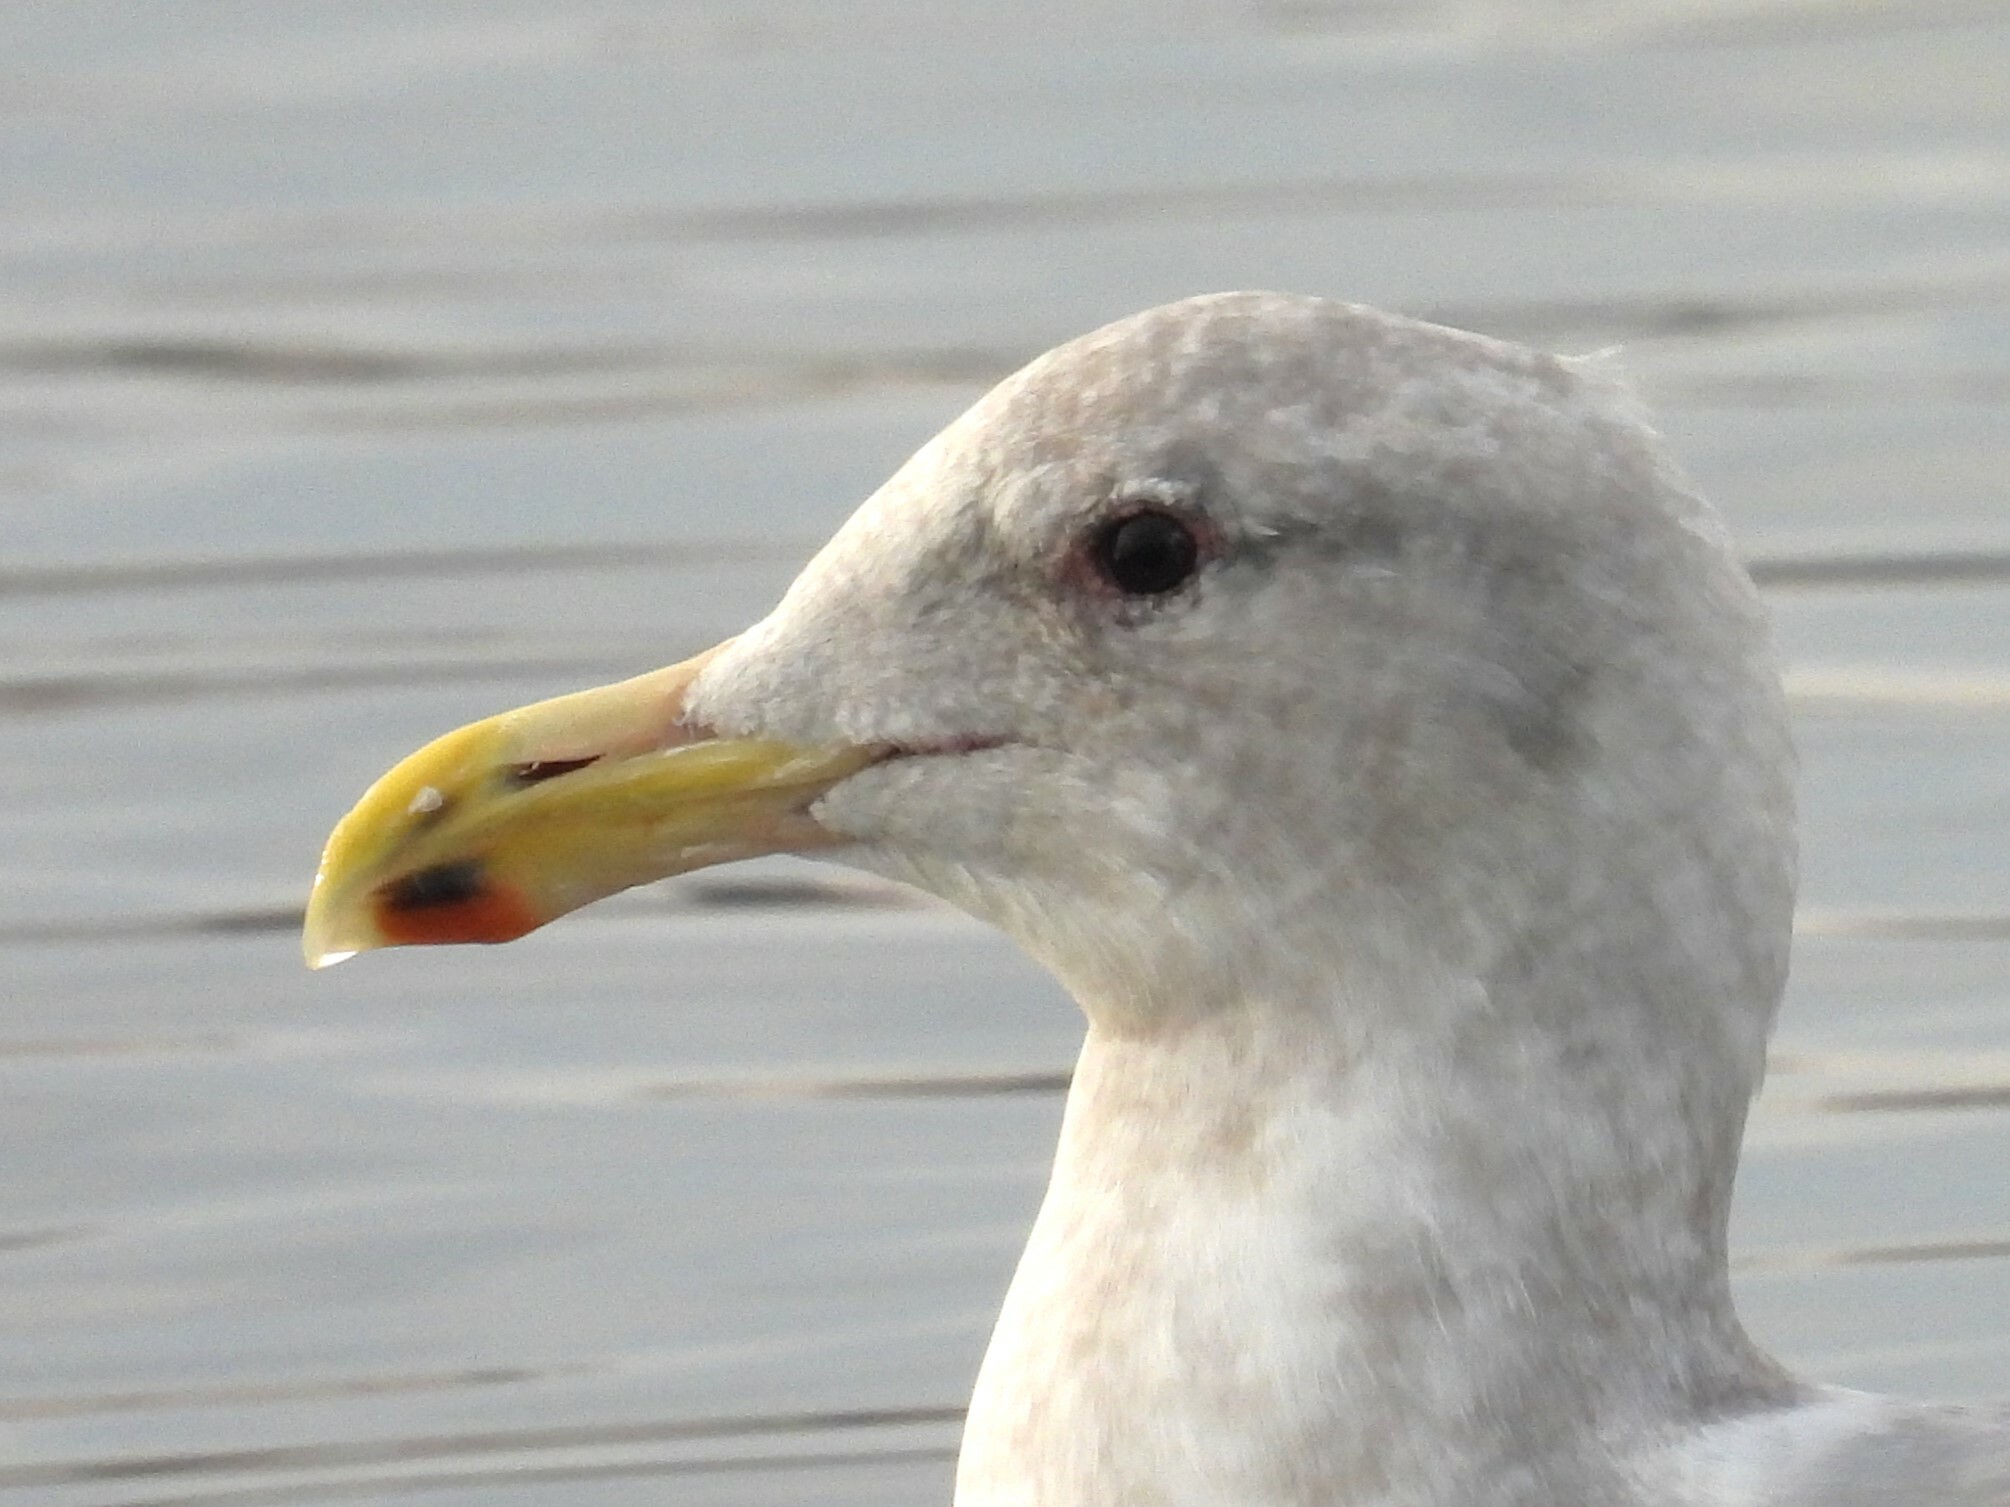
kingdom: Animalia
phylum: Chordata
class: Aves
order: Charadriiformes
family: Laridae
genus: Larus
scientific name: Larus glaucescens
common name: Glaucous-winged gull
